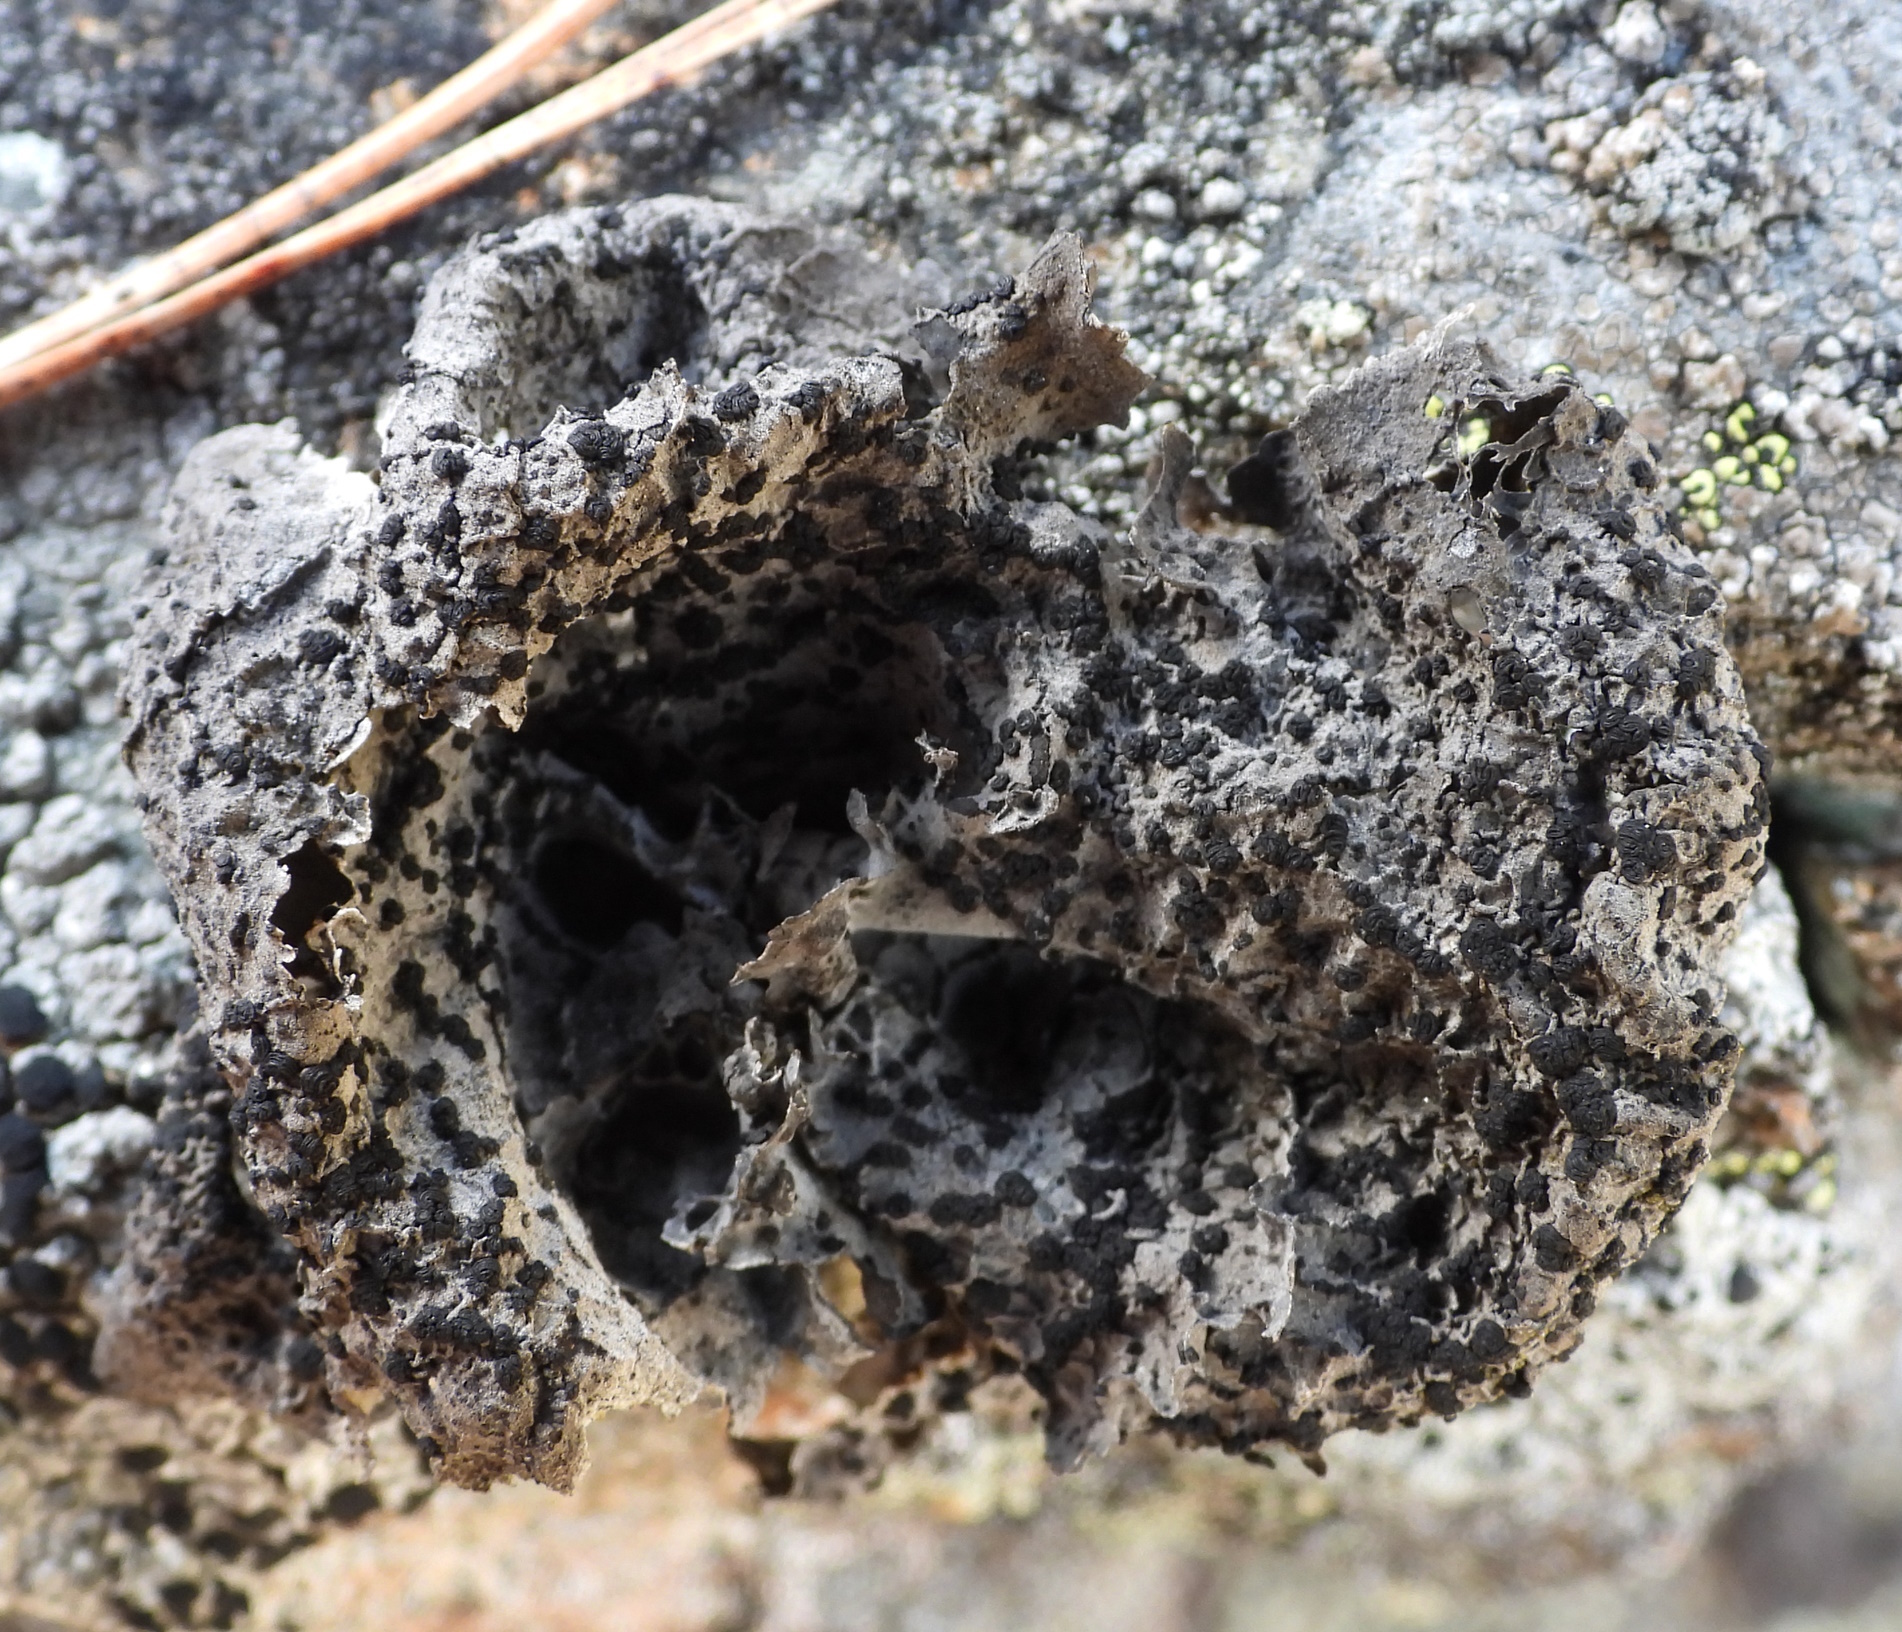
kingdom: Fungi
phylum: Ascomycota
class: Lecanoromycetes
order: Umbilicariales
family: Umbilicariaceae
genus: Umbilicaria
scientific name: Umbilicaria proboscidea
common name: Greater salted rocktripe lichen
